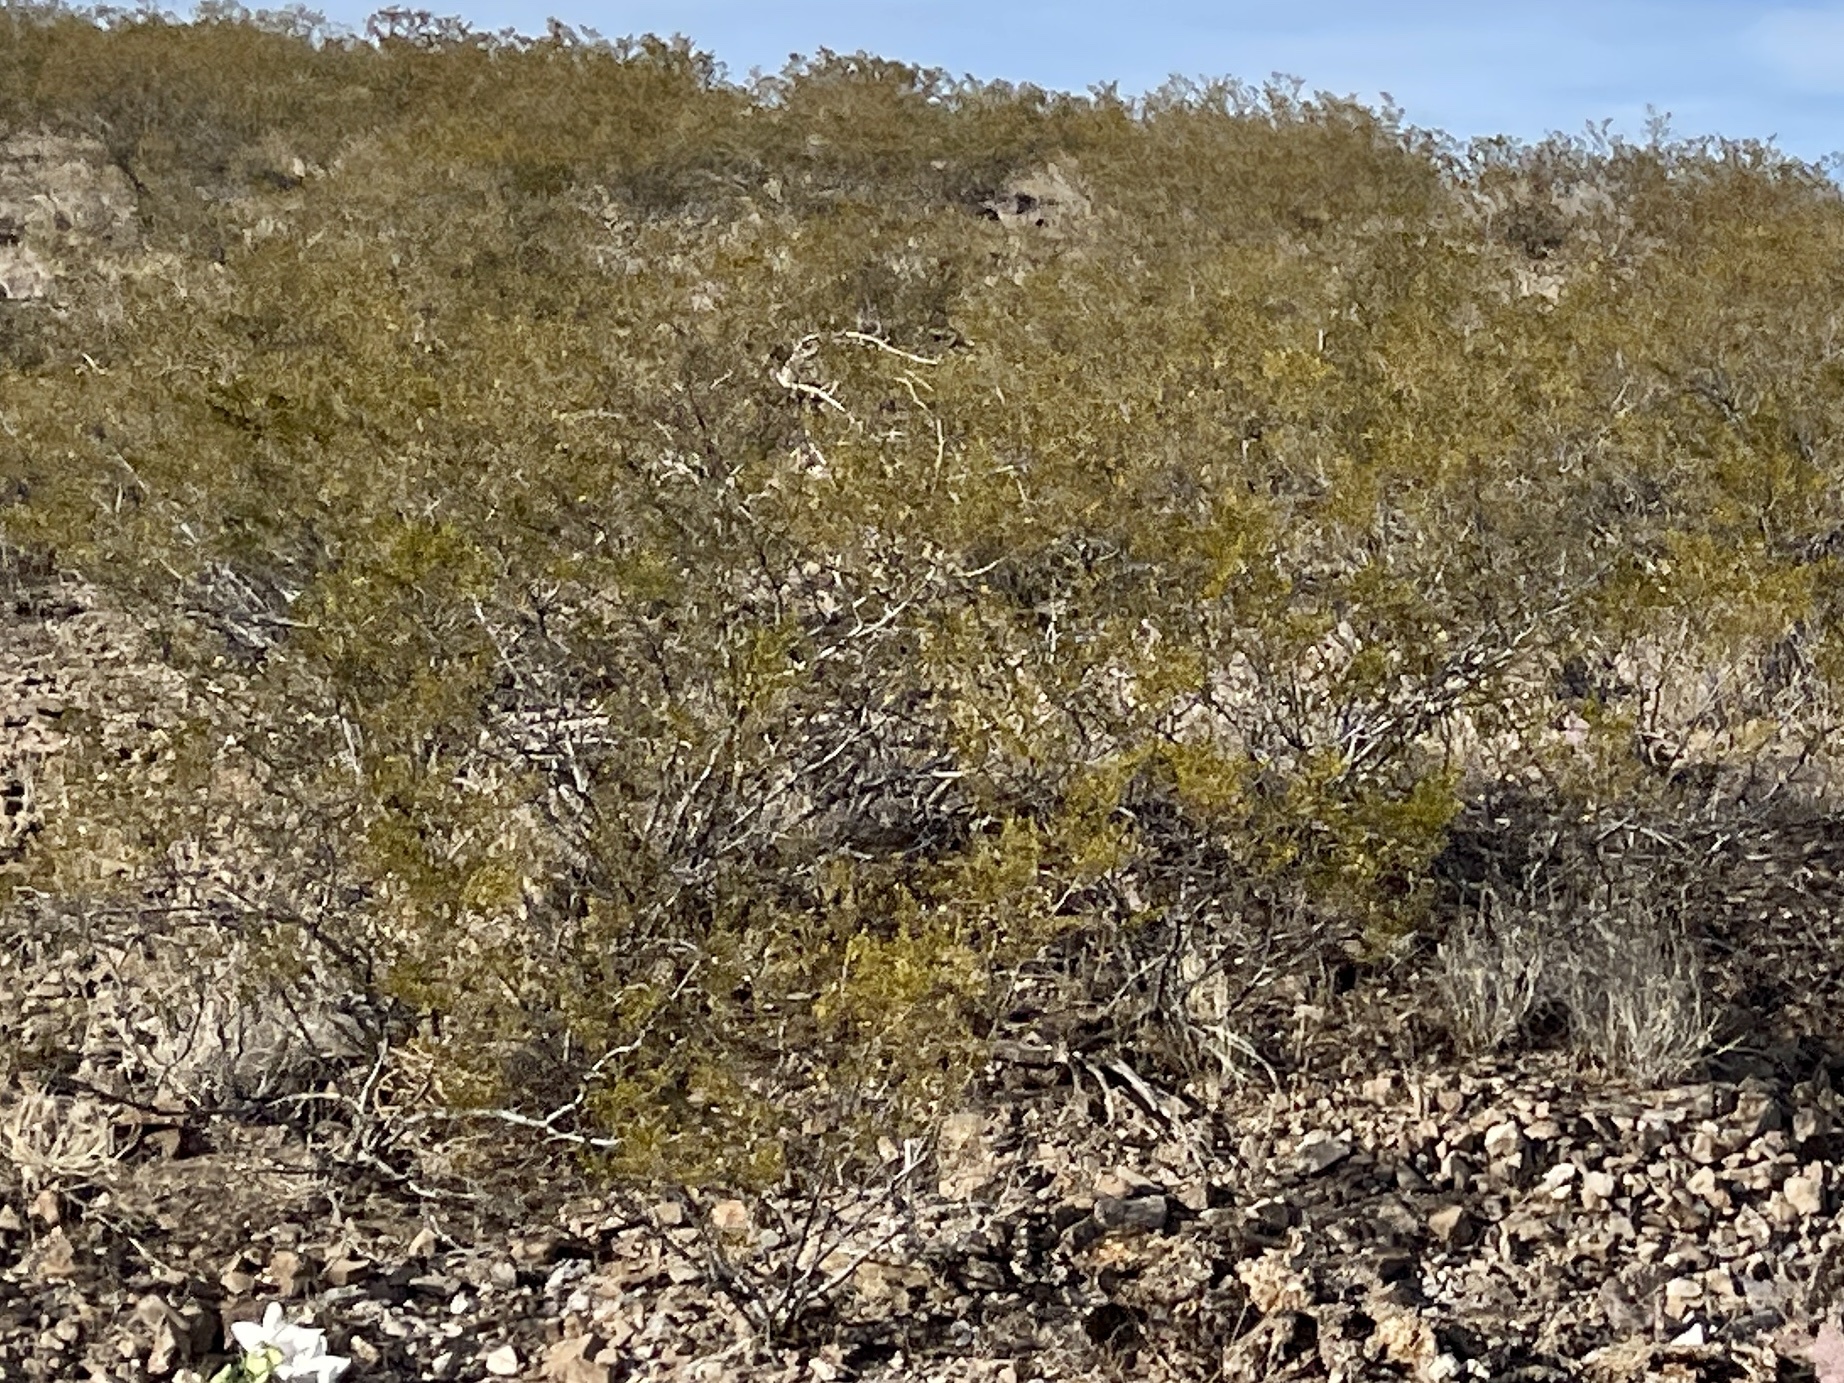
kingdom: Plantae
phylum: Tracheophyta
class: Magnoliopsida
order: Zygophyllales
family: Zygophyllaceae
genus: Larrea
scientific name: Larrea tridentata
